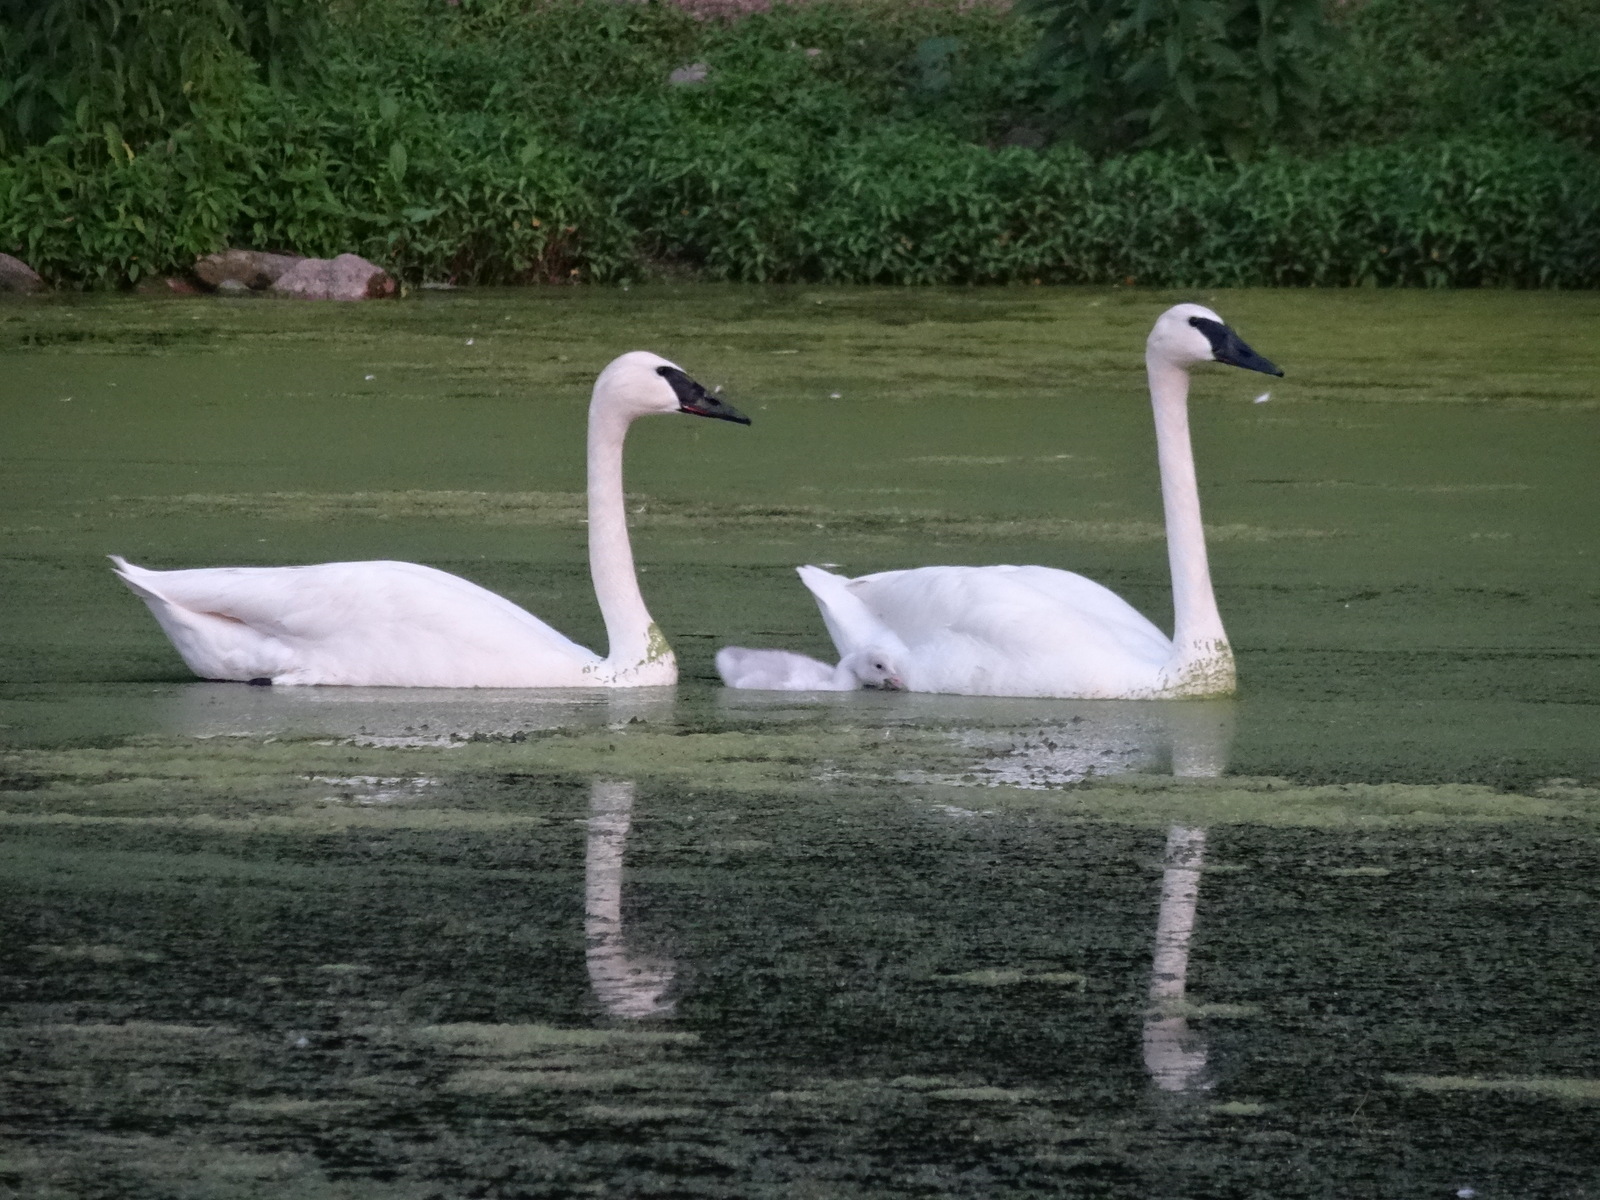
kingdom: Animalia
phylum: Chordata
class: Aves
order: Anseriformes
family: Anatidae
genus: Cygnus
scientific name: Cygnus buccinator
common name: Trumpeter swan
